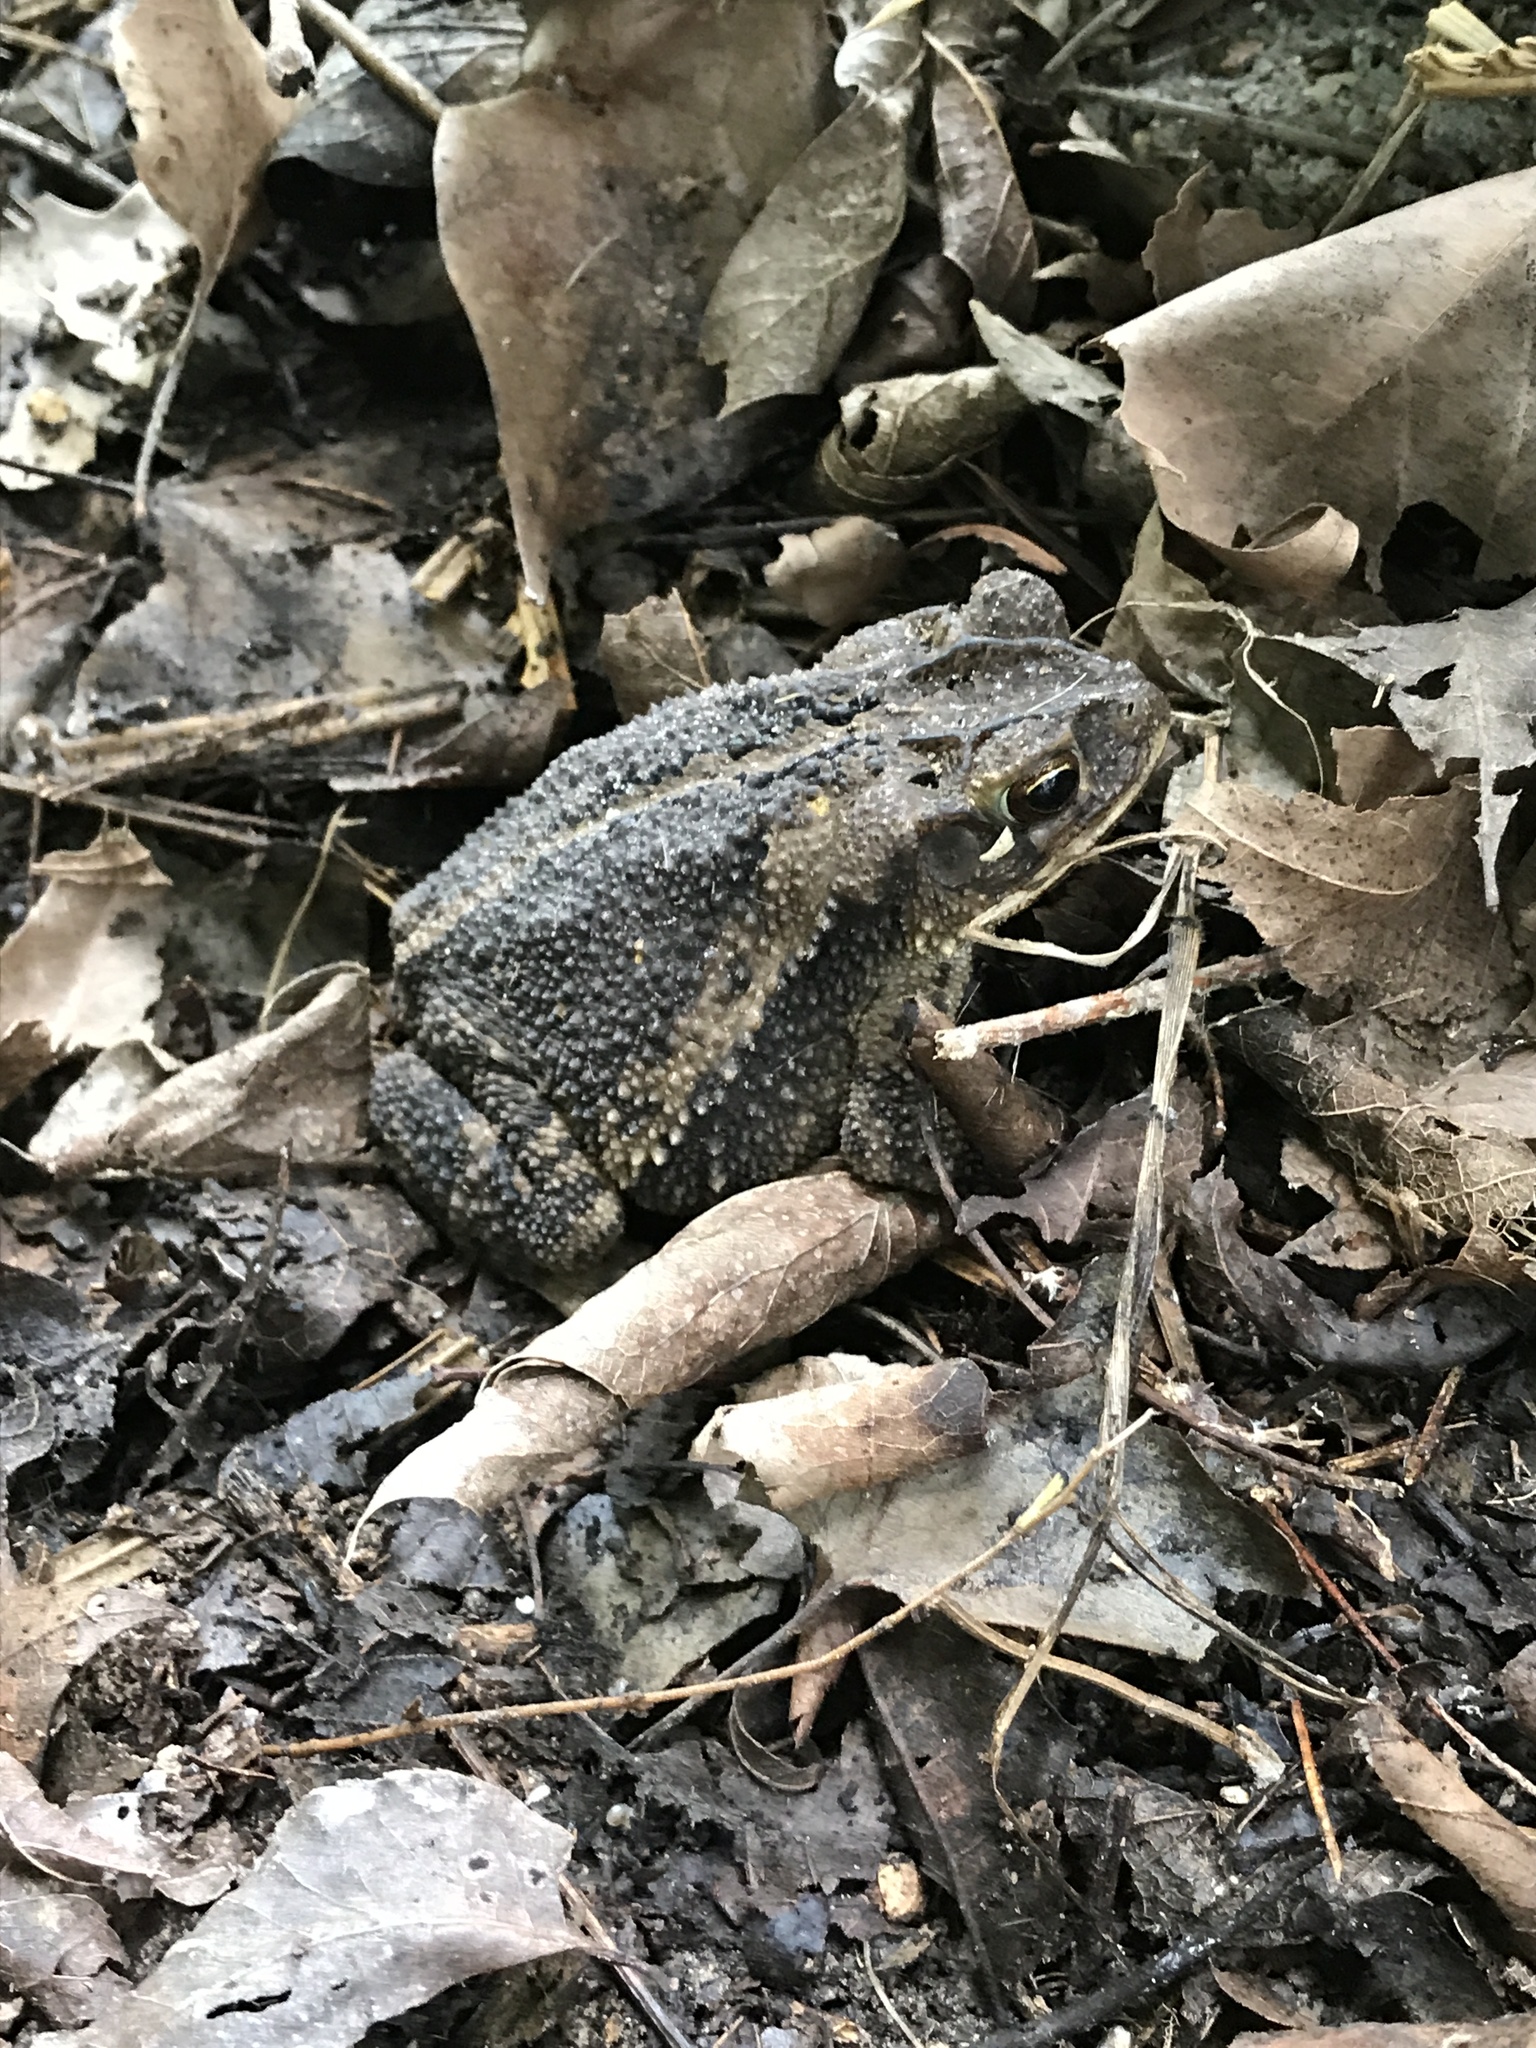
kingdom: Animalia
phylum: Chordata
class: Amphibia
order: Anura
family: Bufonidae
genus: Incilius
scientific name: Incilius nebulifer
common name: Gulf coast toad
